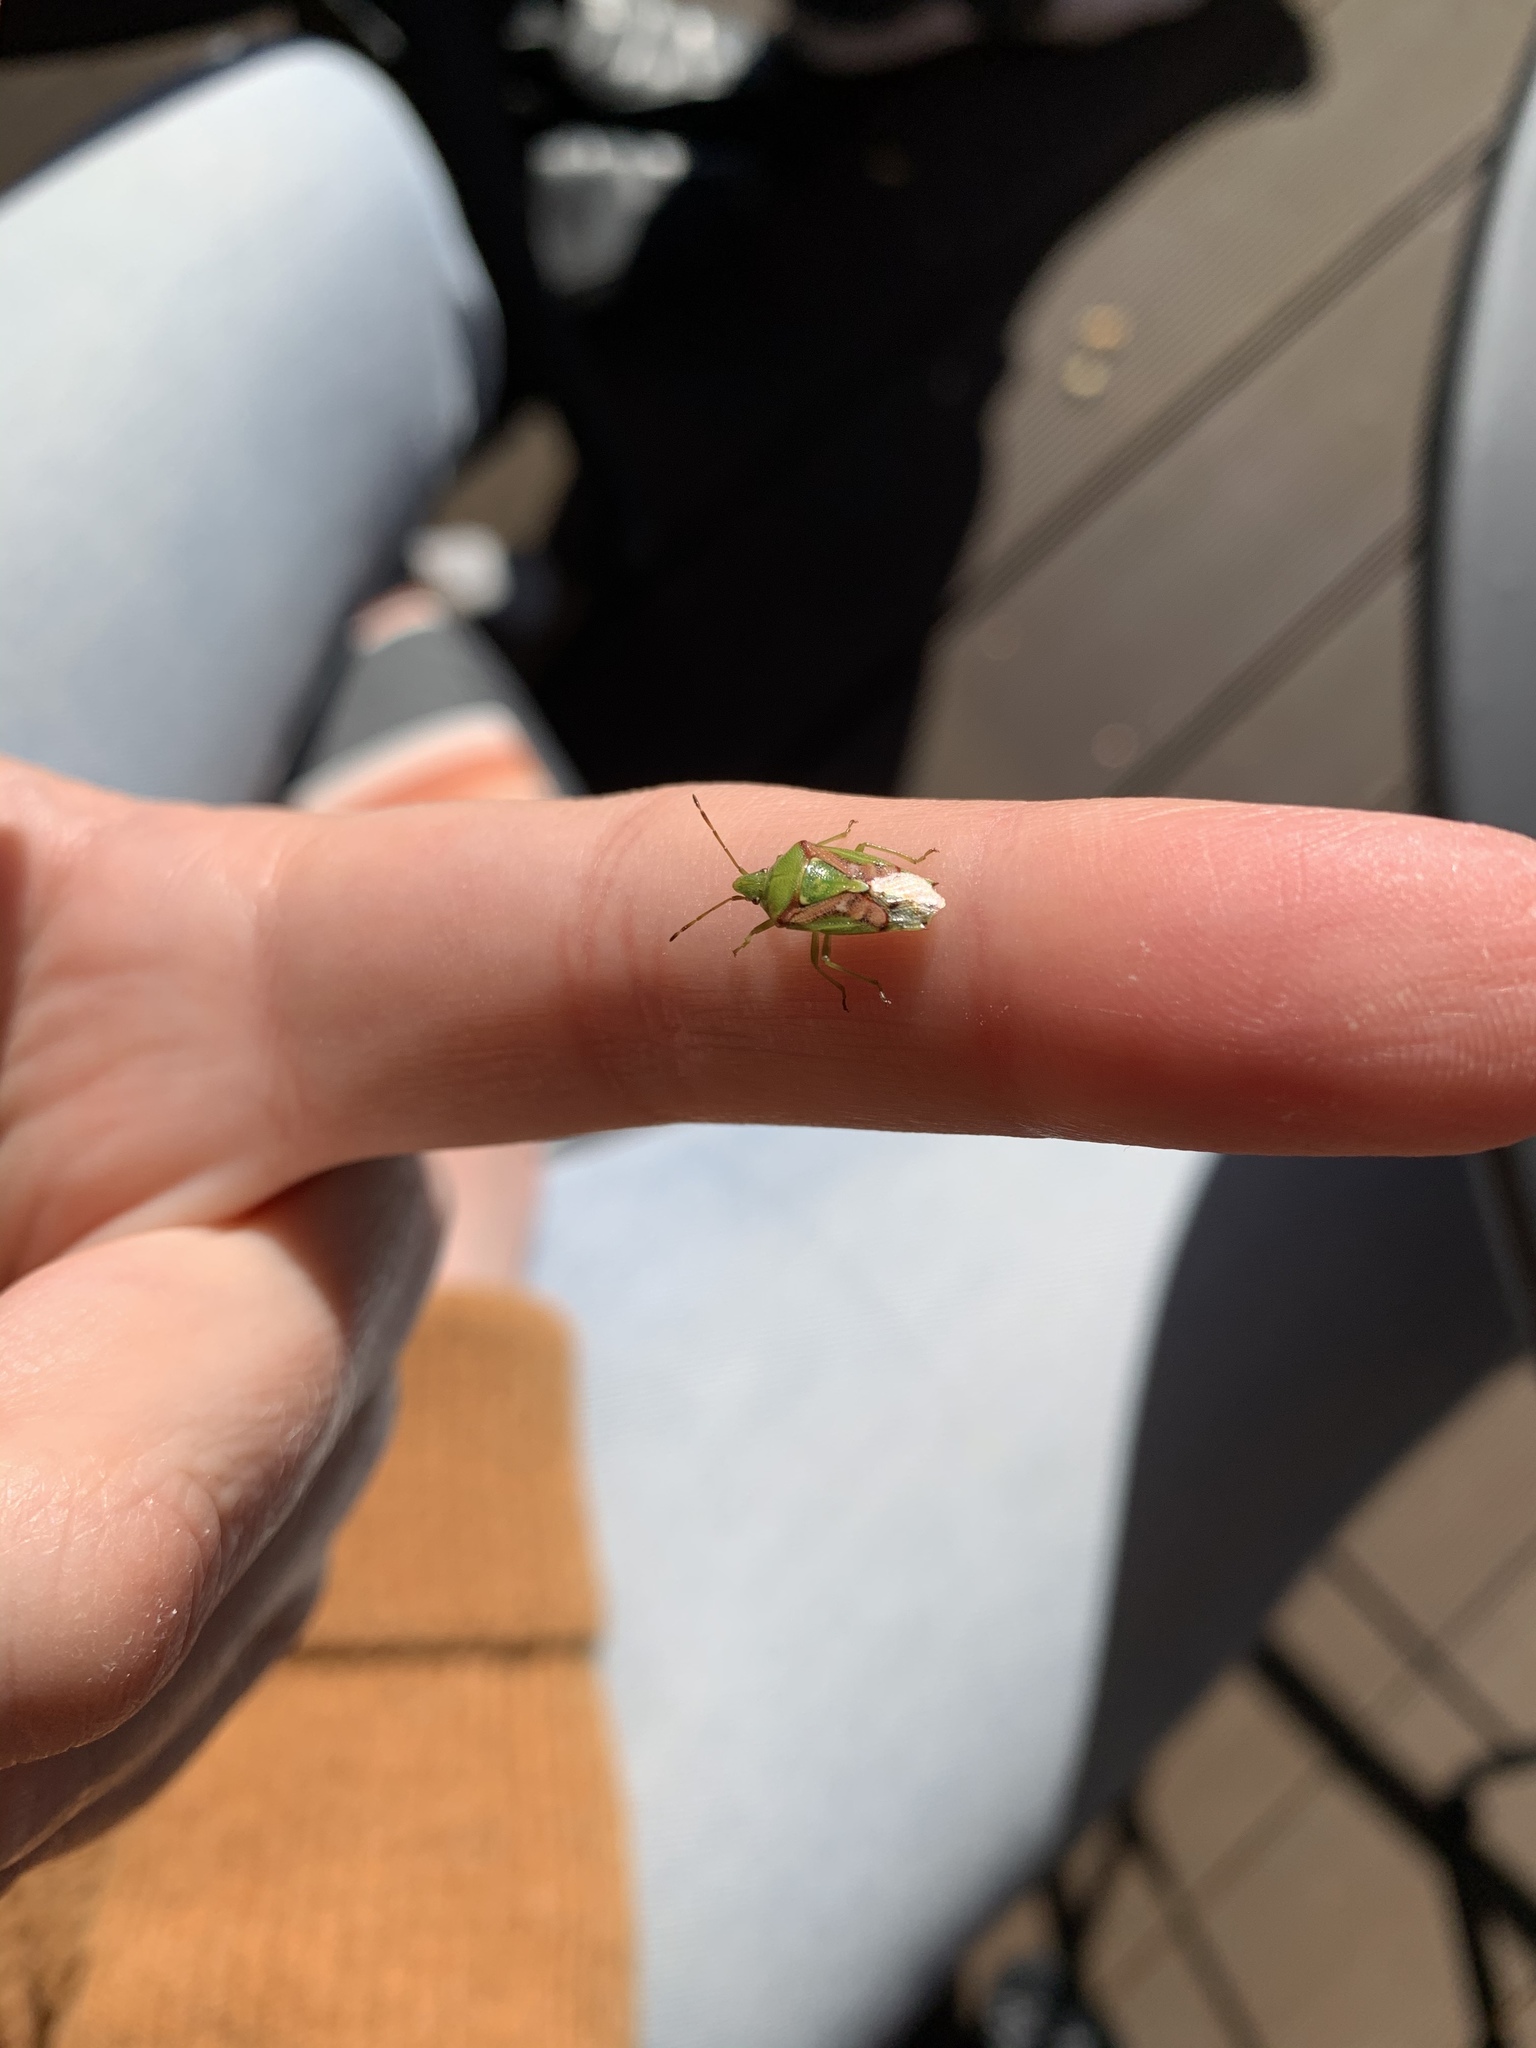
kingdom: Animalia
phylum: Arthropoda
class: Insecta
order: Hemiptera
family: Acanthosomatidae
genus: Cyphostethus
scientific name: Cyphostethus tristriatus
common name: Juniper shieldbug
